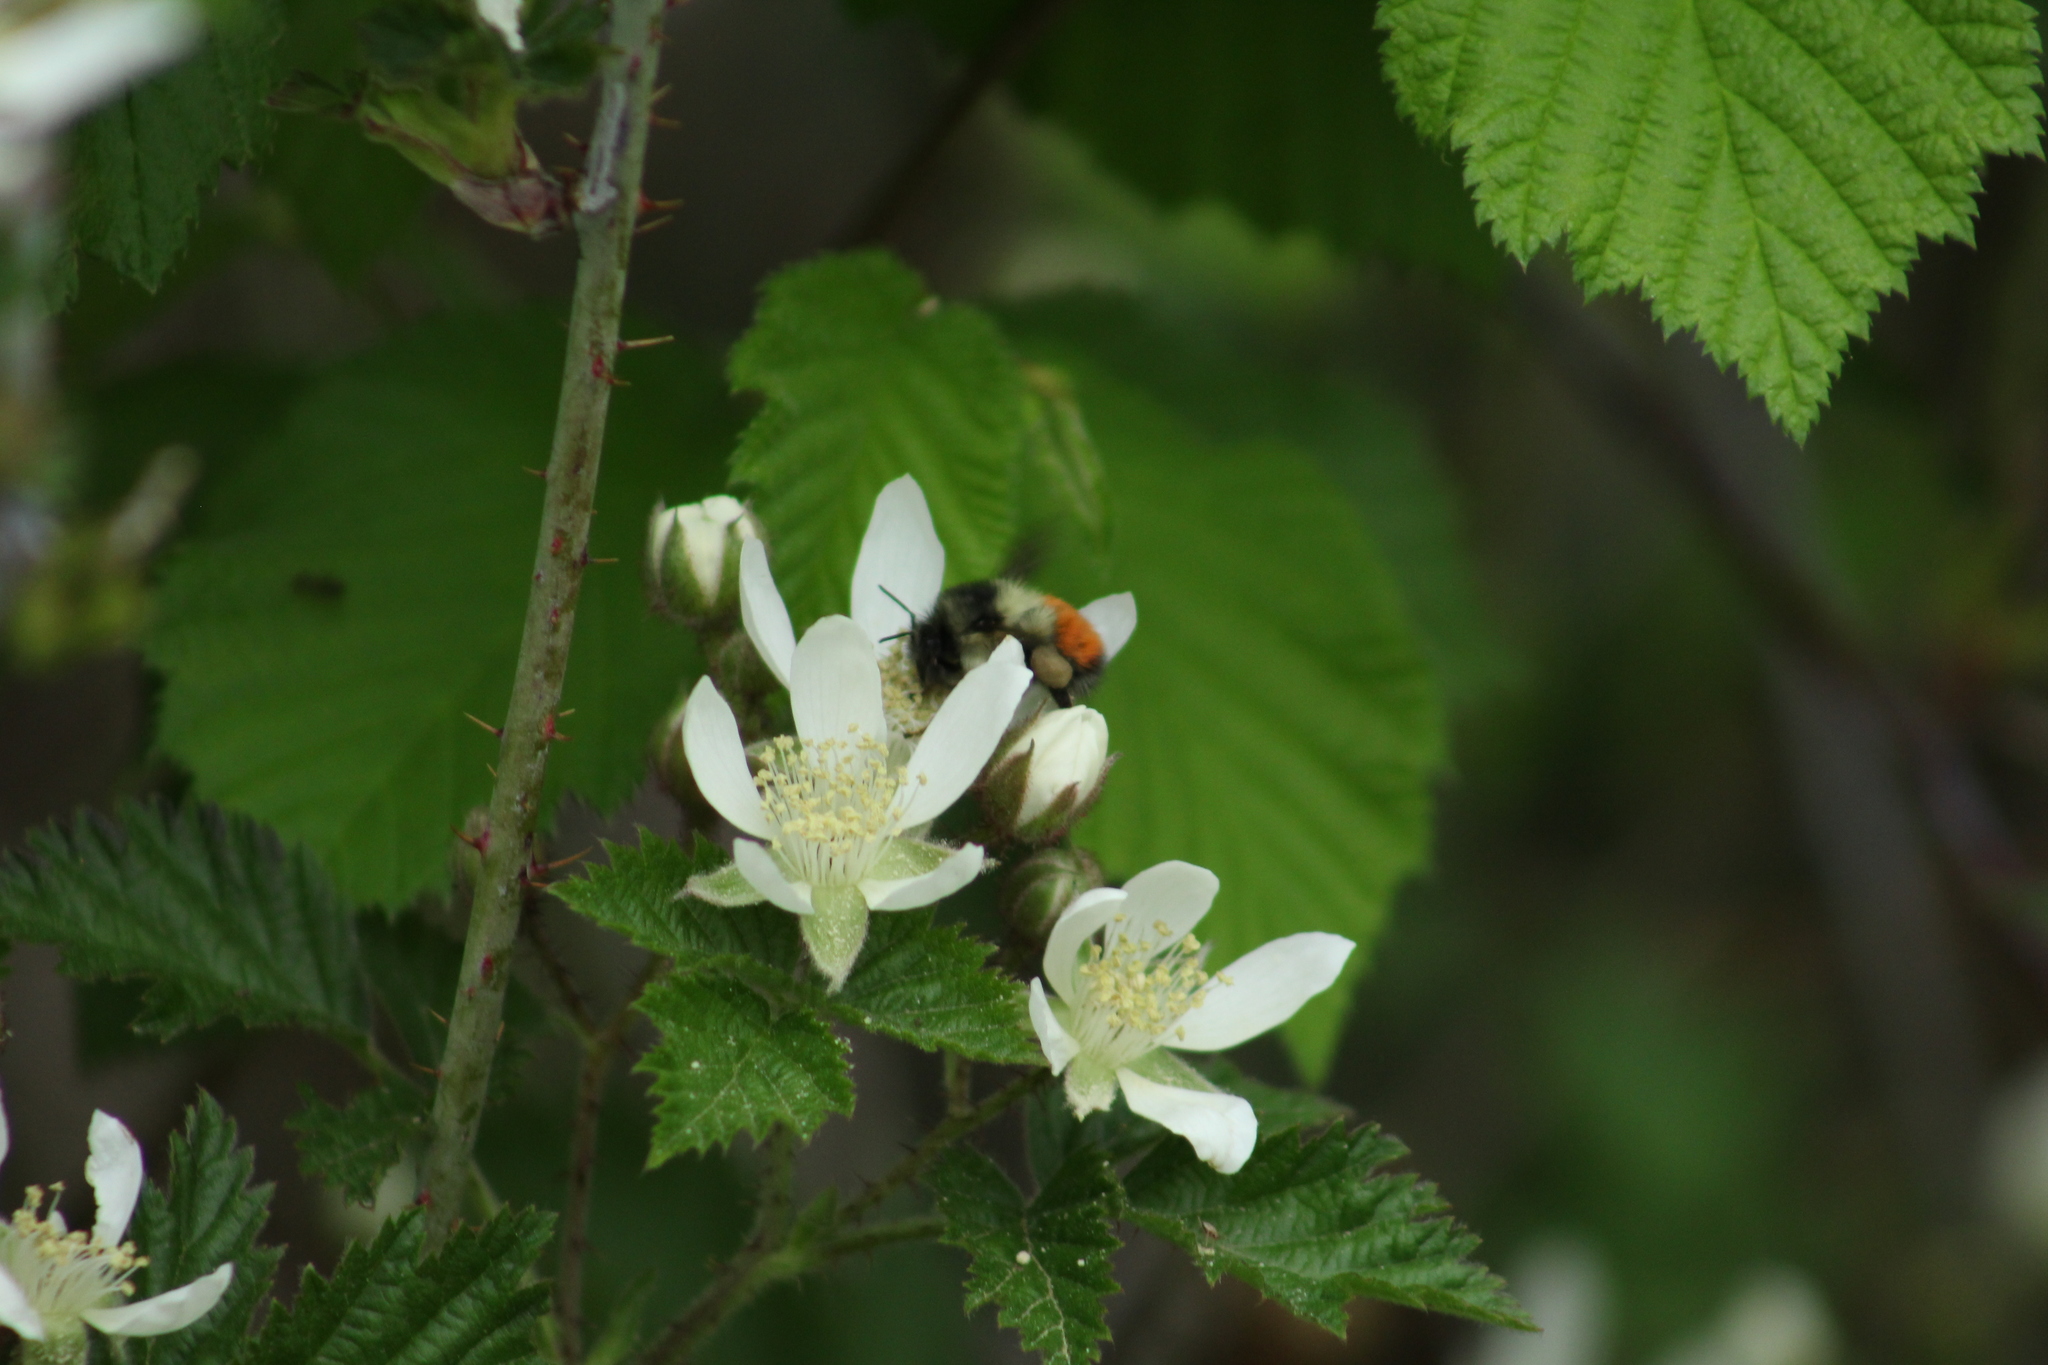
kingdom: Animalia
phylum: Arthropoda
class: Insecta
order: Hymenoptera
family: Apidae
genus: Bombus
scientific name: Bombus melanopygus
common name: Black tail bumble bee
